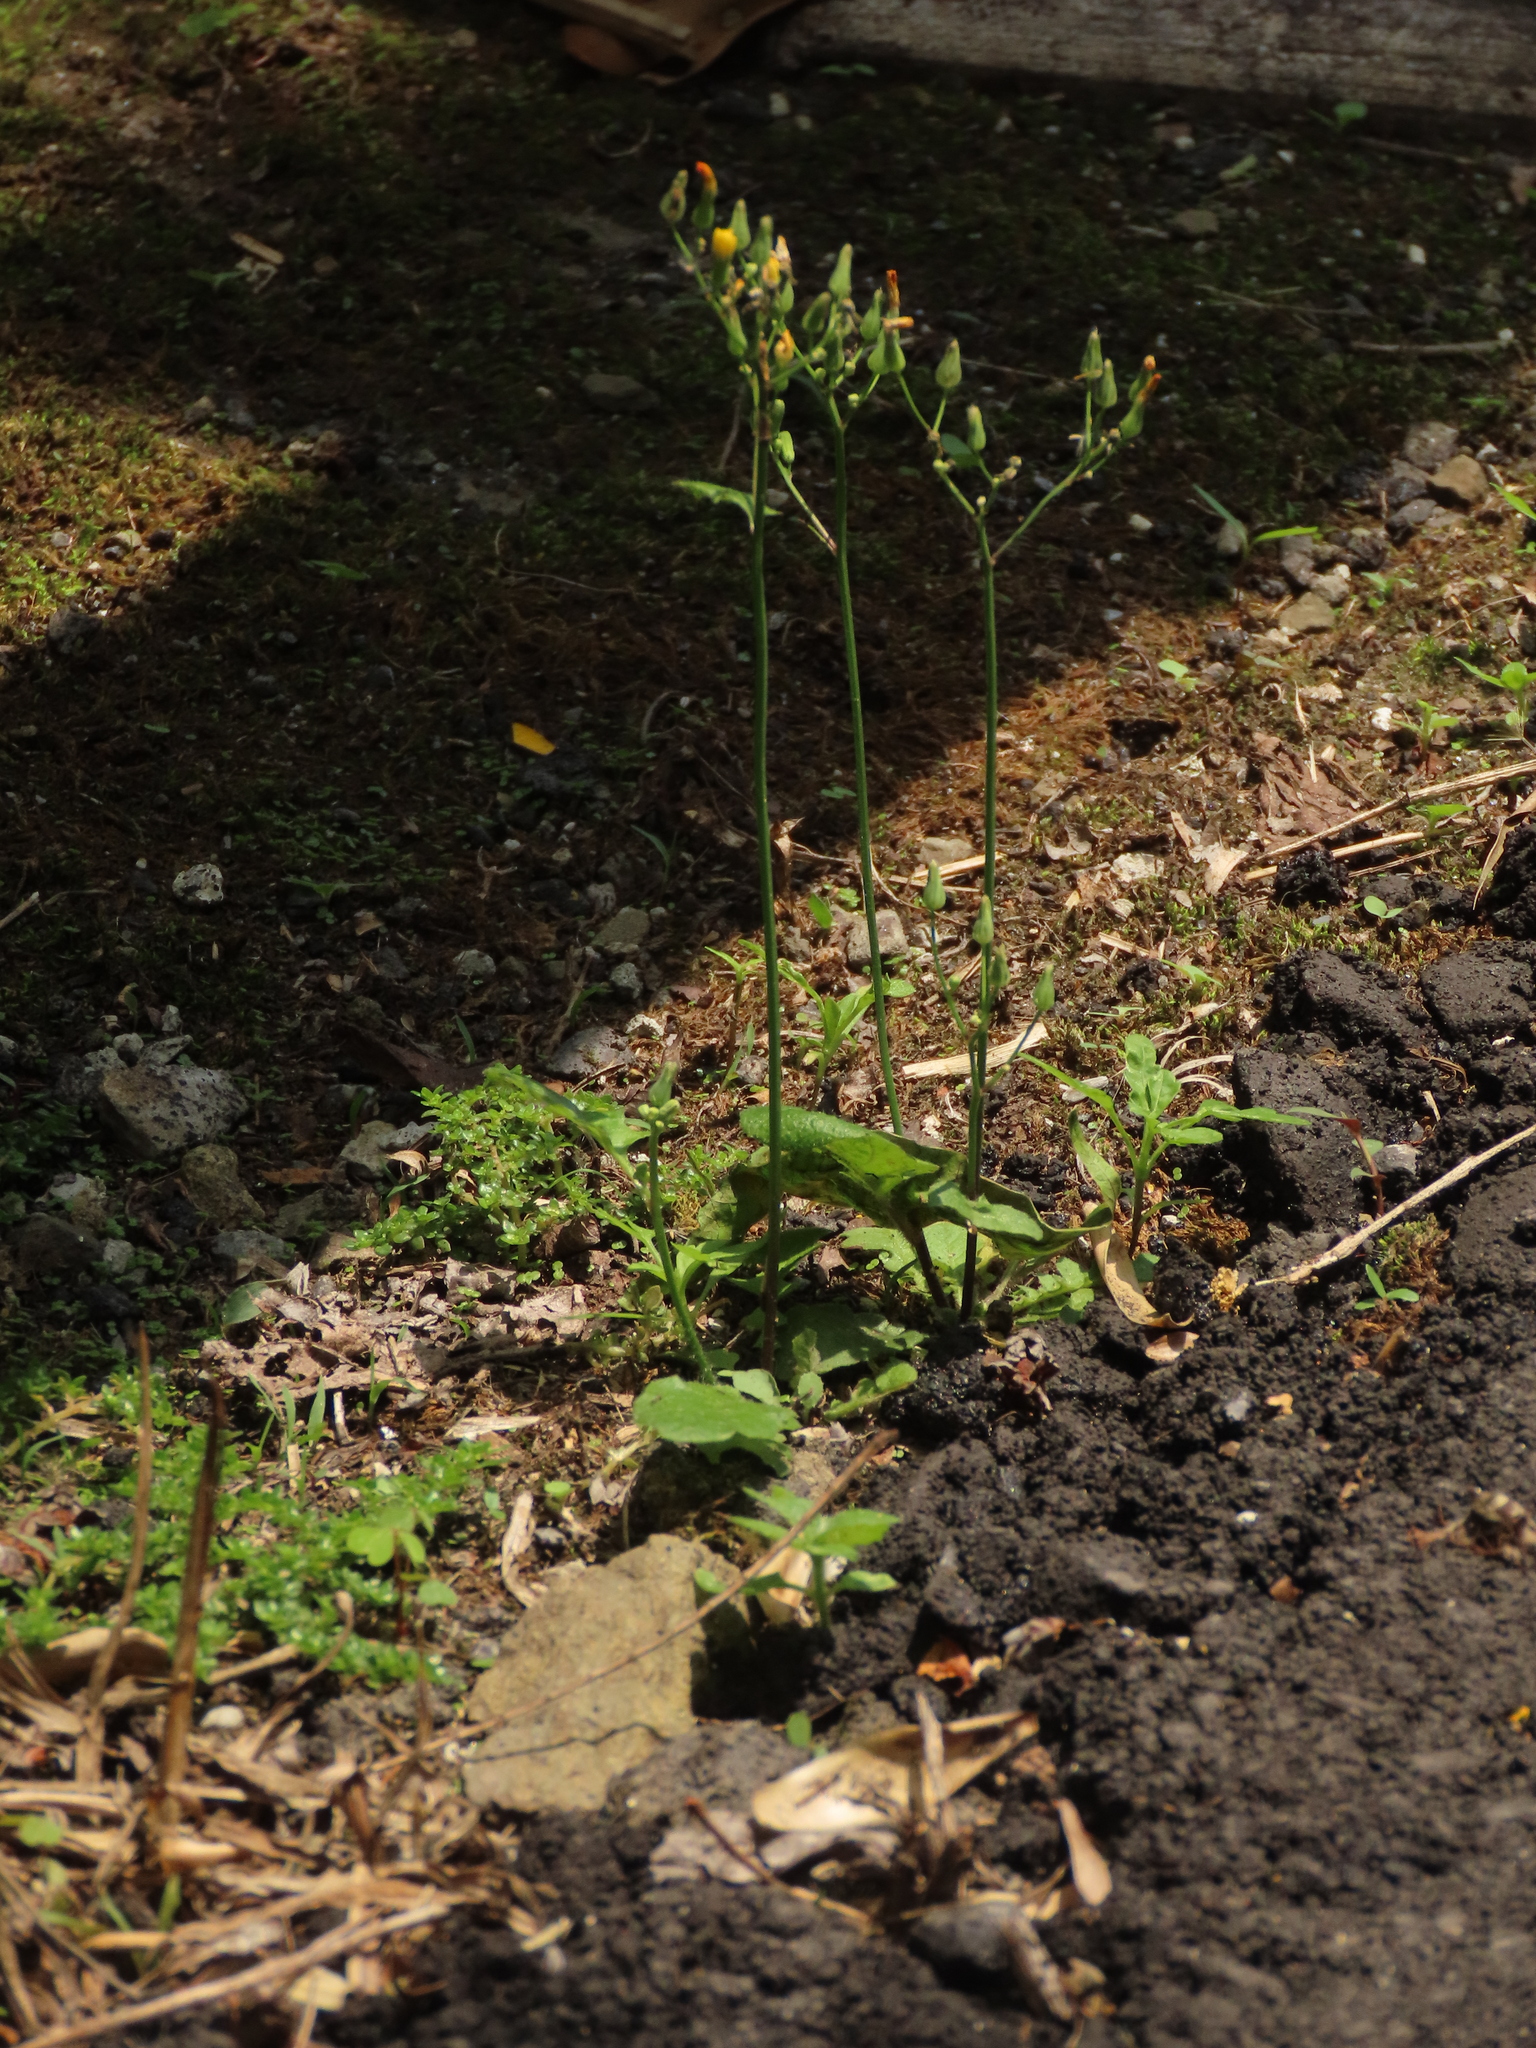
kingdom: Plantae
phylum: Tracheophyta
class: Magnoliopsida
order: Asterales
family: Asteraceae
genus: Youngia
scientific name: Youngia japonica
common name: Oriental false hawksbeard
